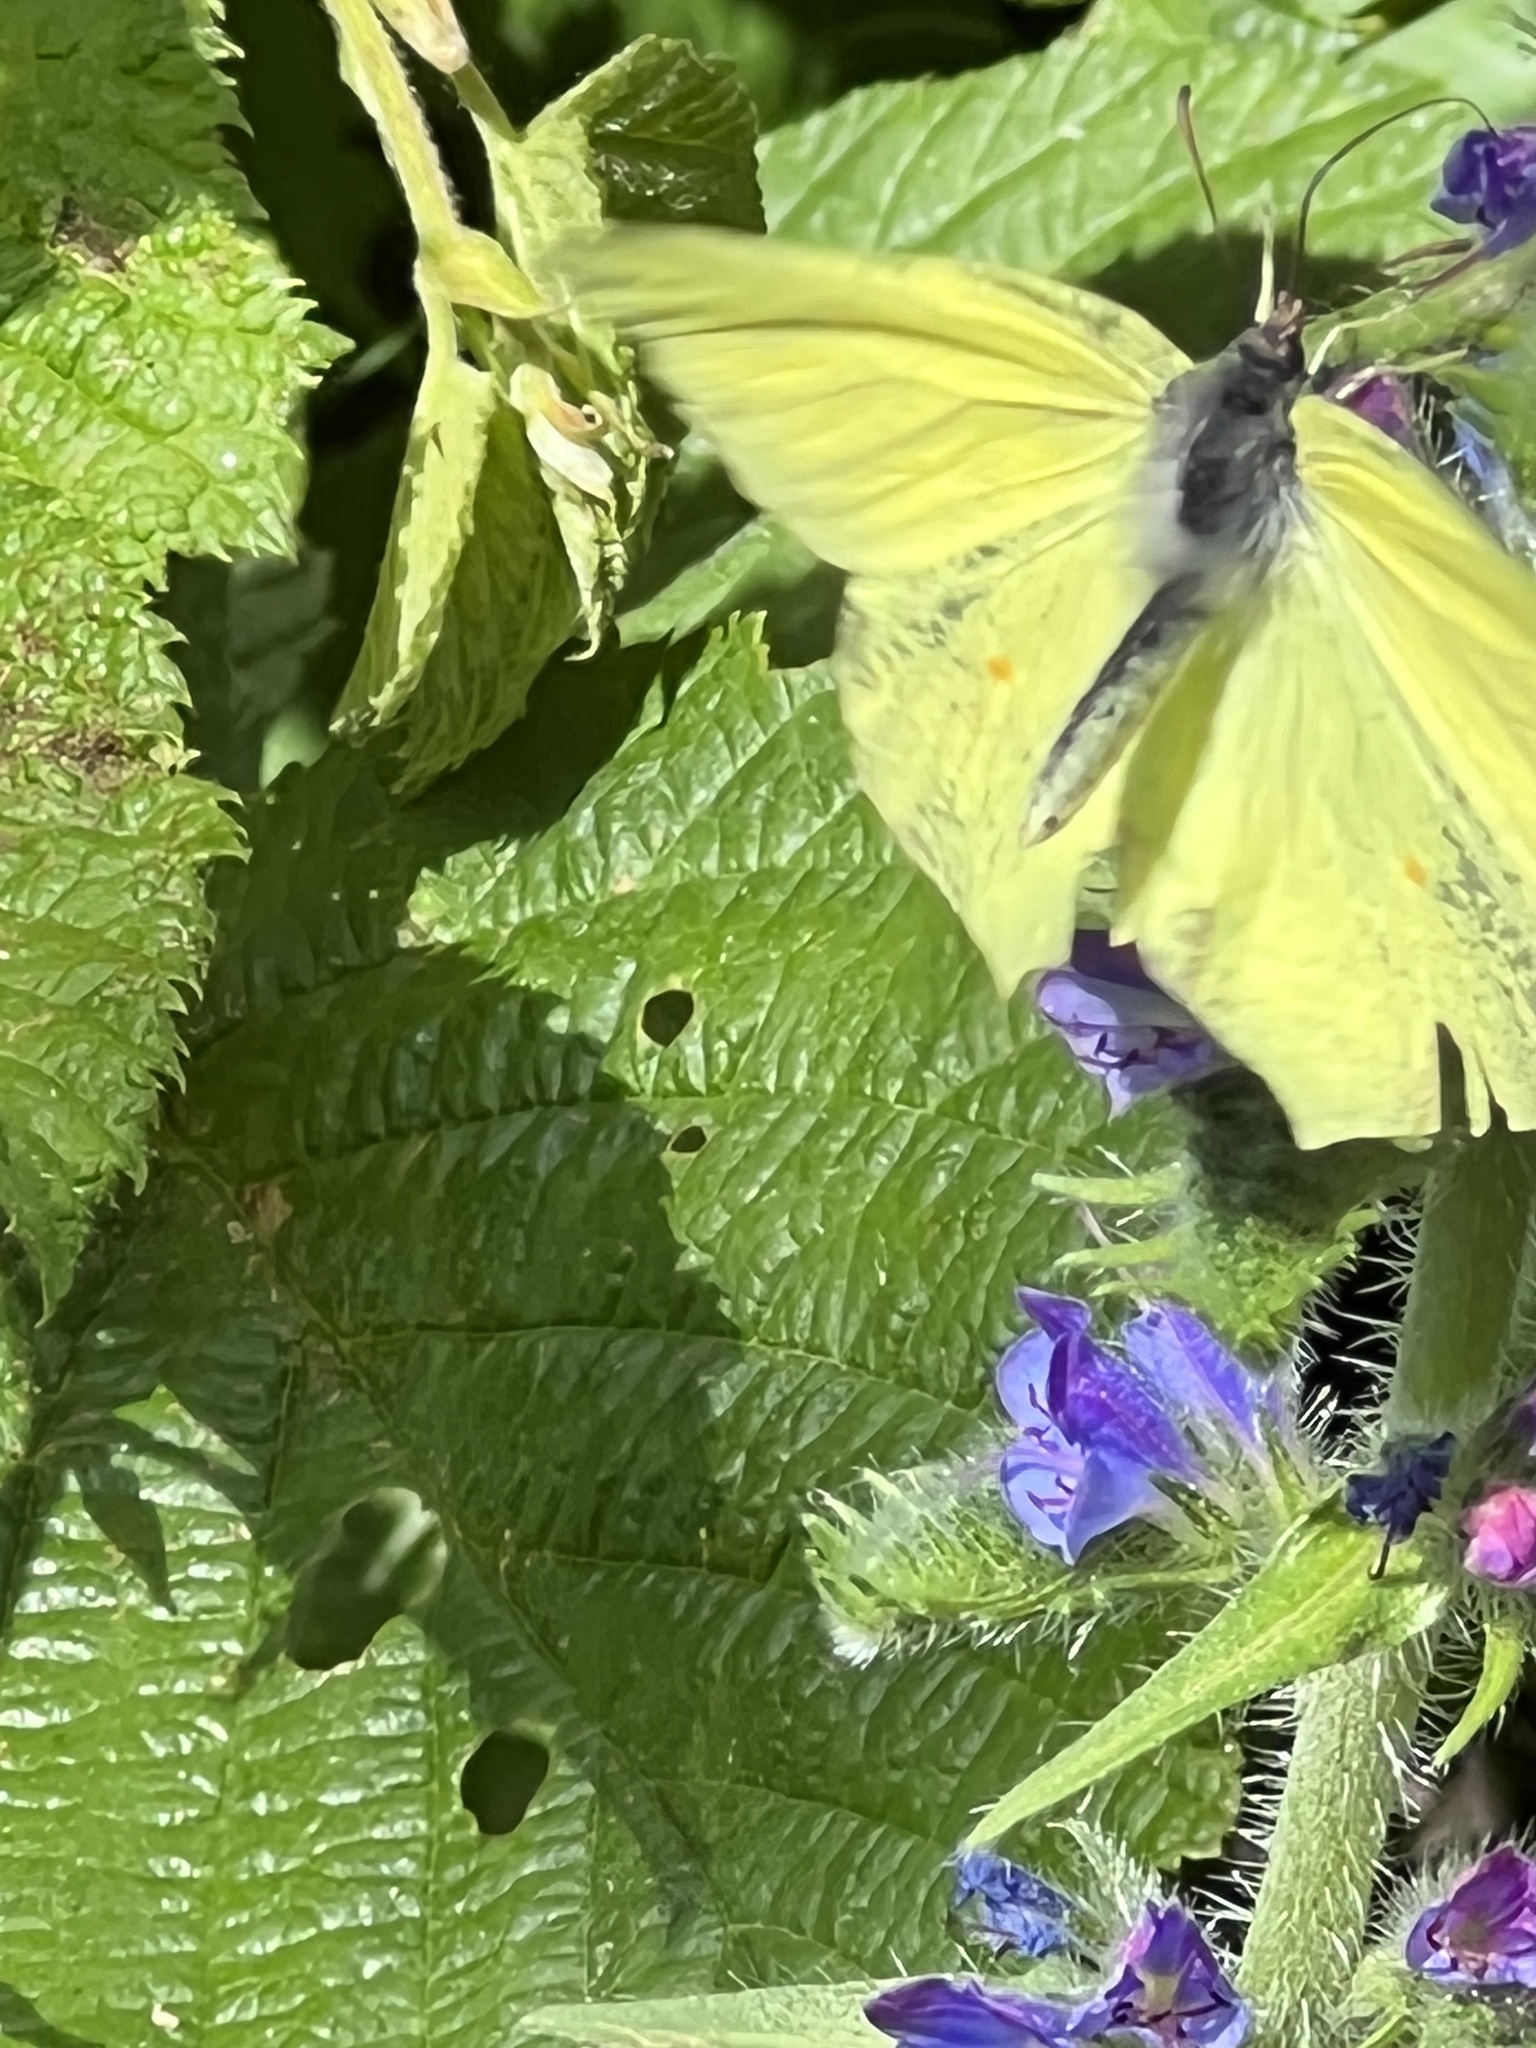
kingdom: Animalia
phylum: Arthropoda
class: Insecta
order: Lepidoptera
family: Pieridae
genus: Gonepteryx
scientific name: Gonepteryx rhamni
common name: Brimstone
